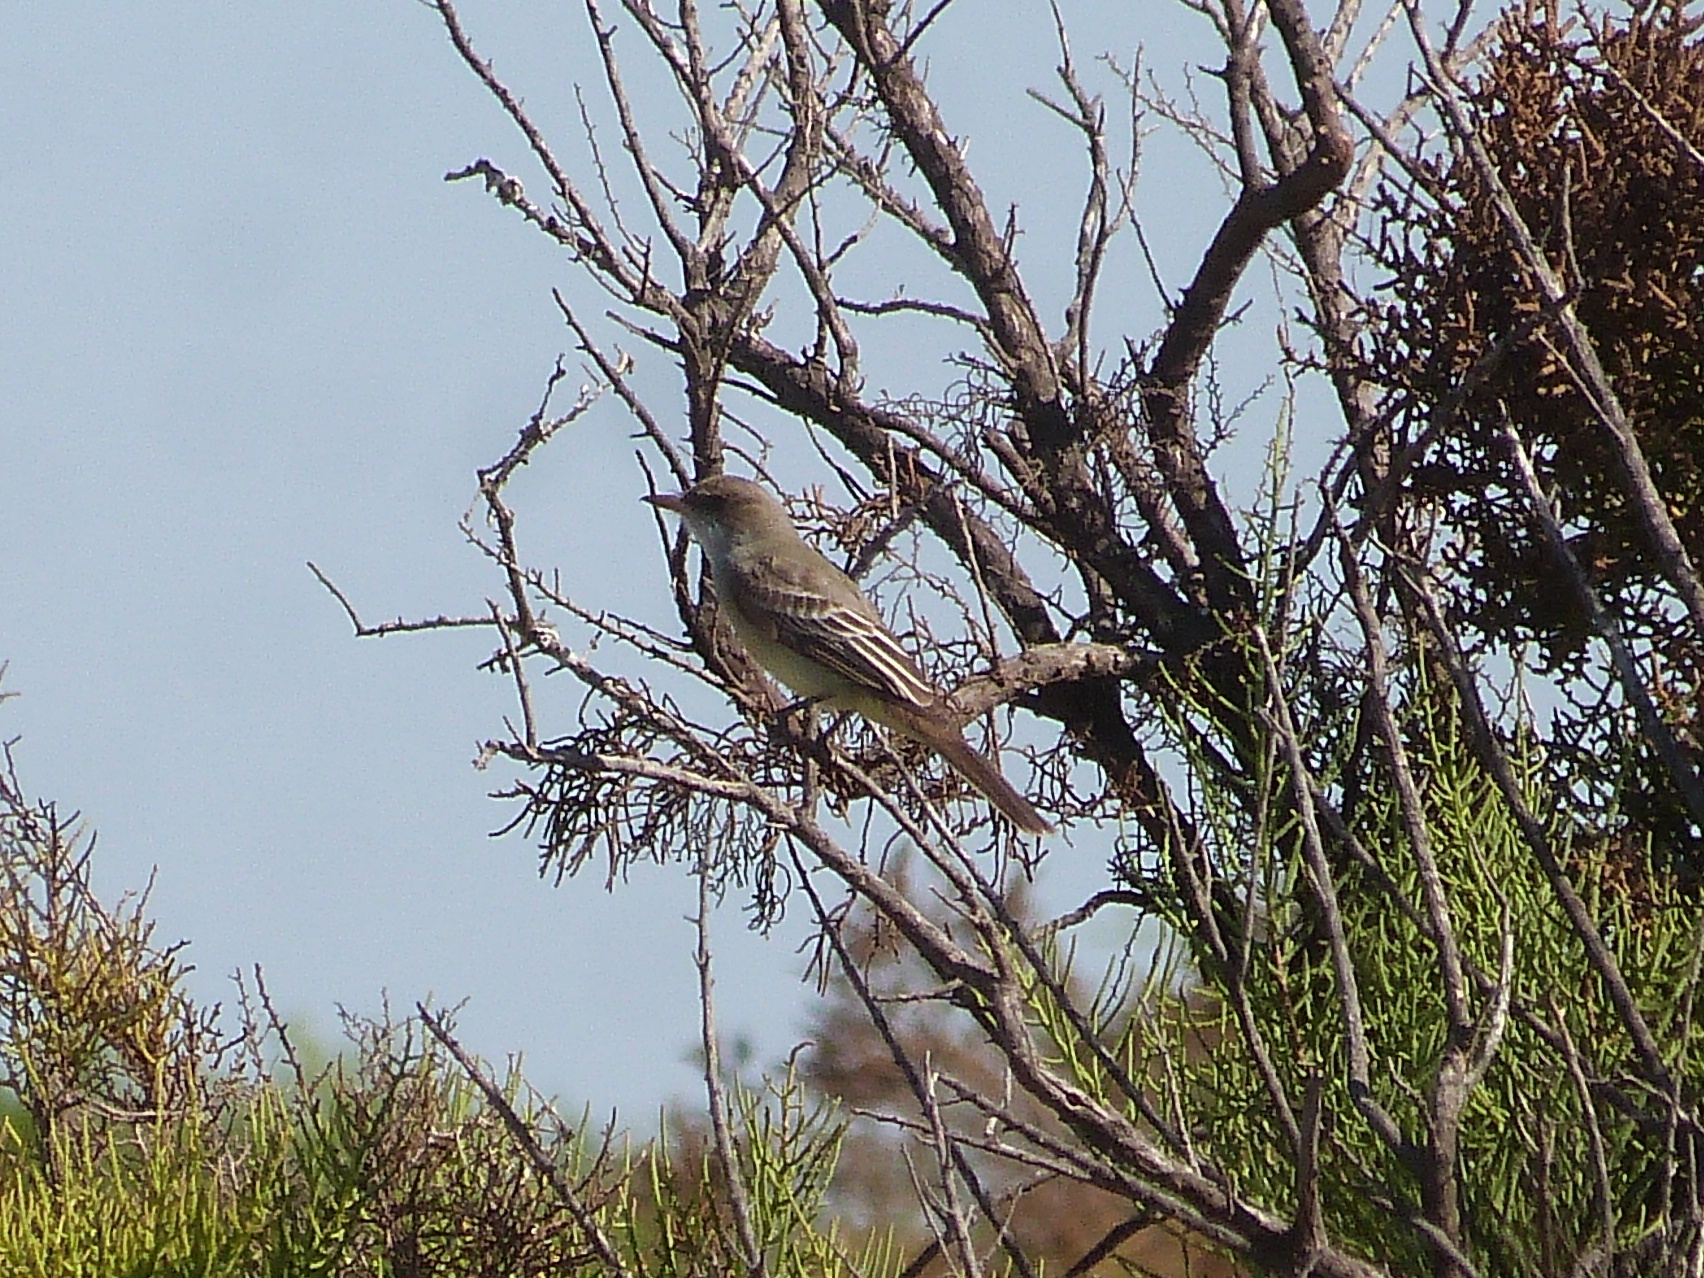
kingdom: Animalia
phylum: Chordata
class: Aves
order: Passeriformes
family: Tyrannidae
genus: Myiarchus
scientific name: Myiarchus swainsoni
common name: Swainson's flycatcher
